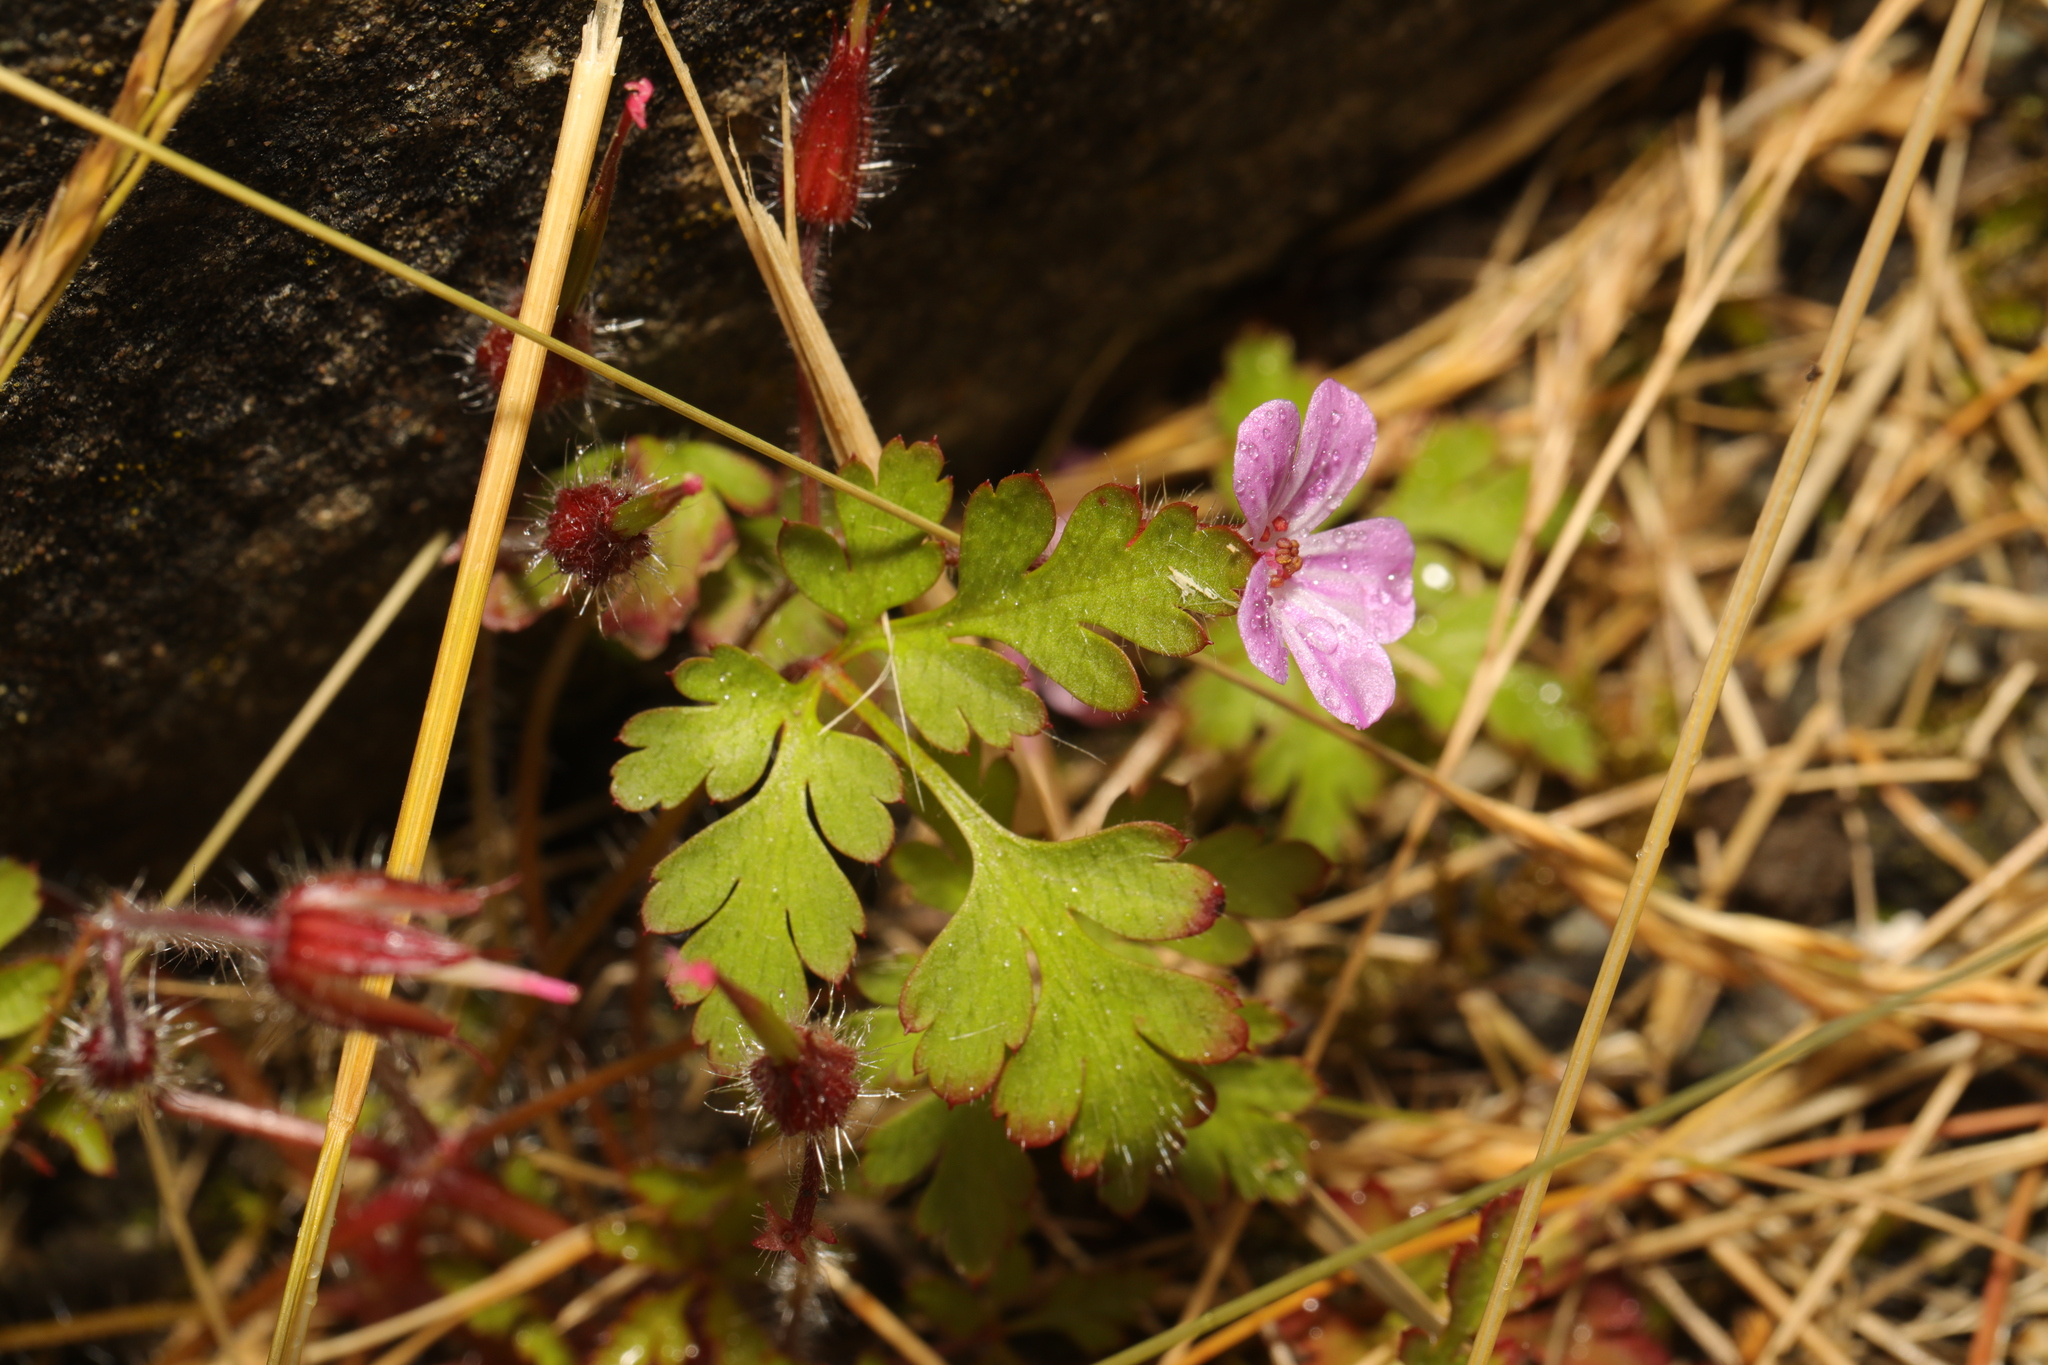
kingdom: Plantae
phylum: Tracheophyta
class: Magnoliopsida
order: Geraniales
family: Geraniaceae
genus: Geranium
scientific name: Geranium robertianum
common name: Herb-robert
